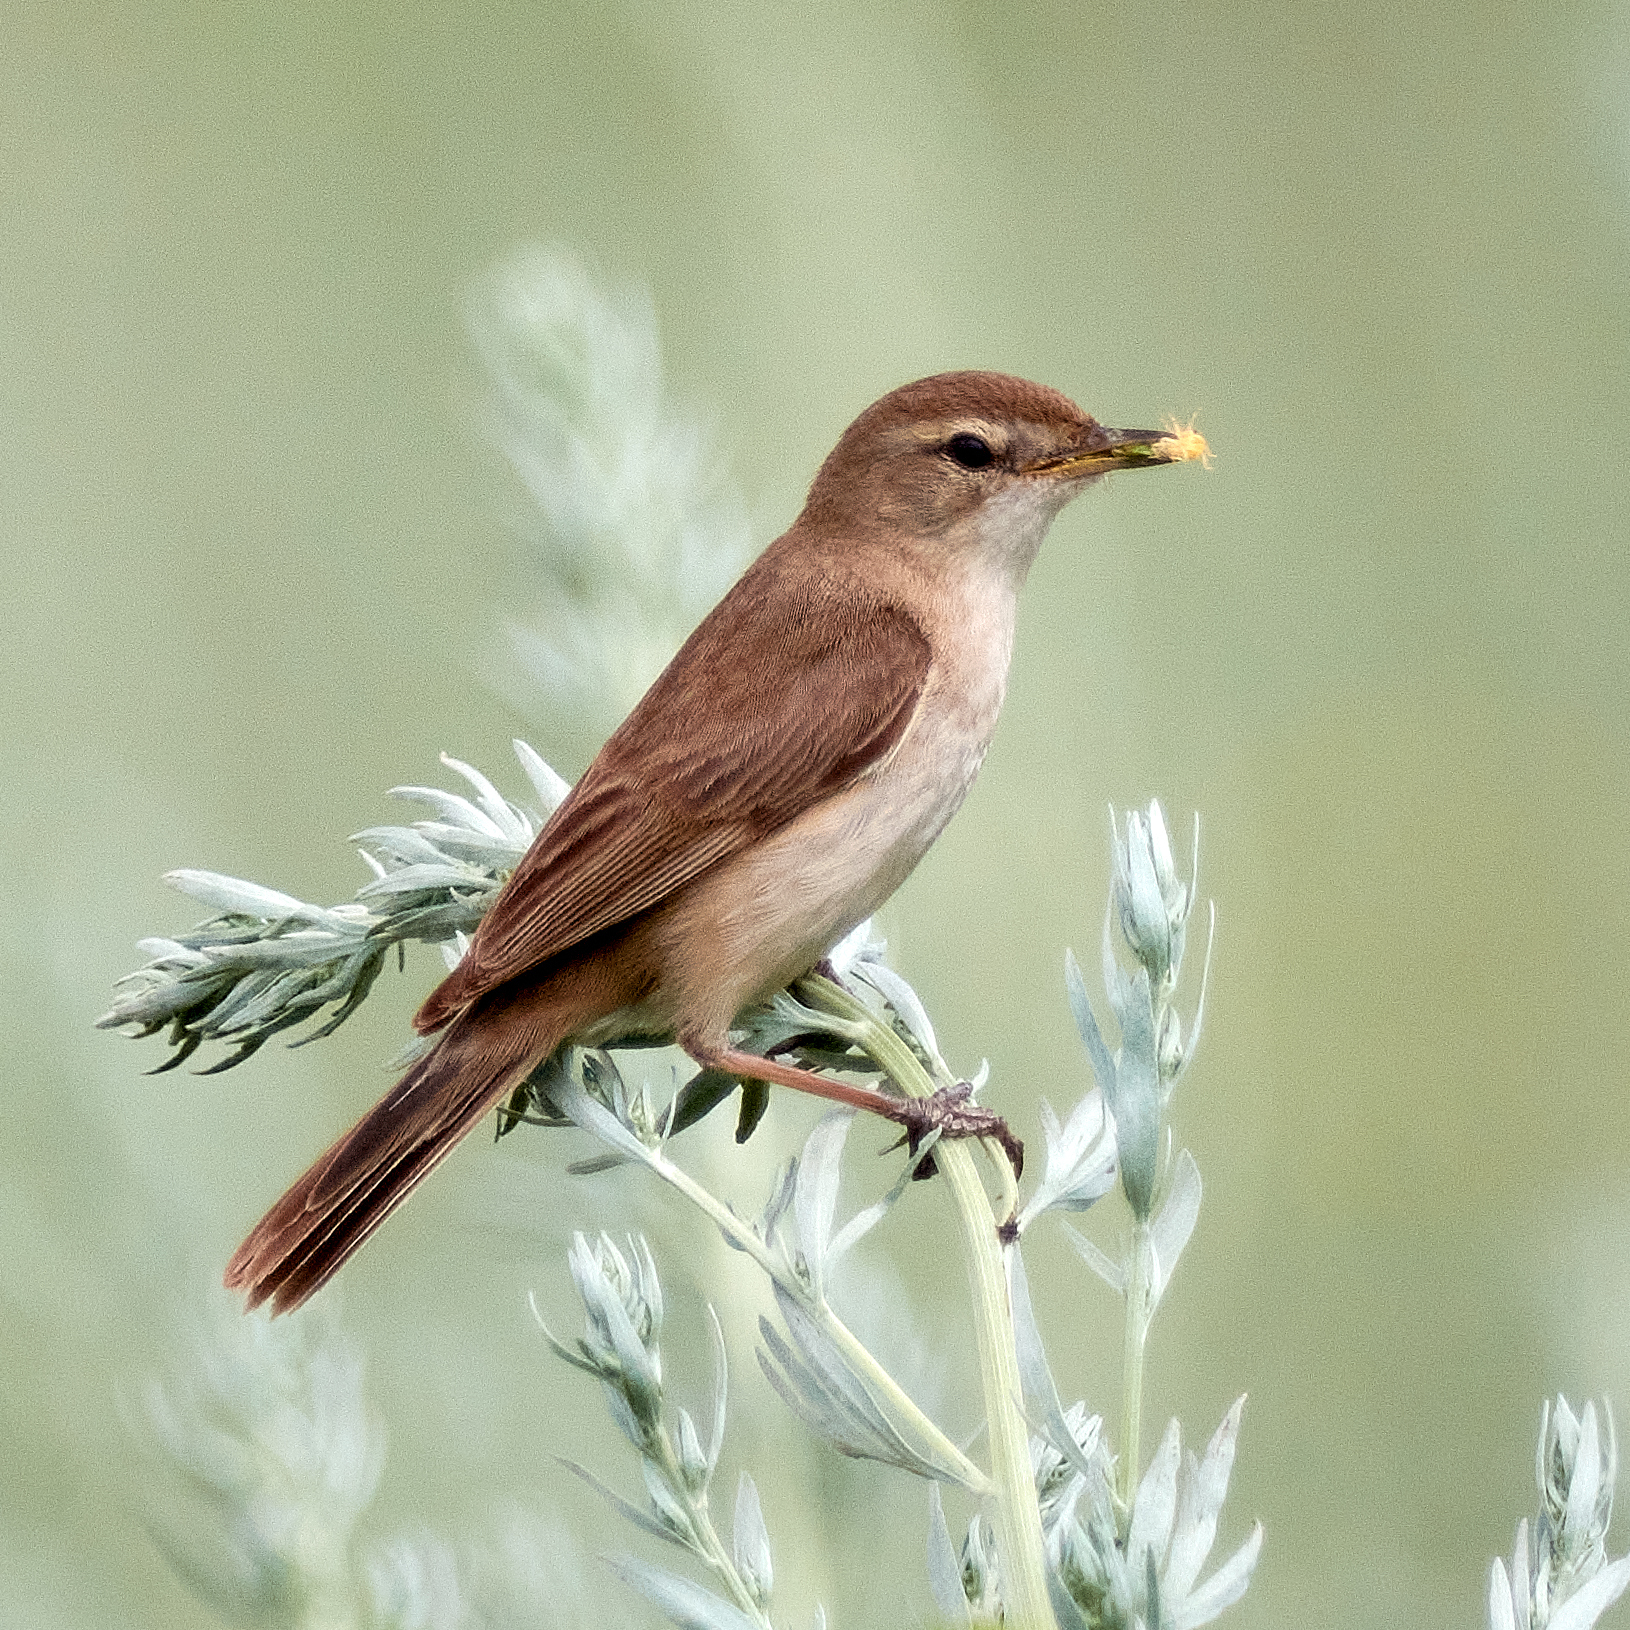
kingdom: Animalia
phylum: Chordata
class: Aves
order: Passeriformes
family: Acrocephalidae
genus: Iduna
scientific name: Iduna caligata
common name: Booted warbler
